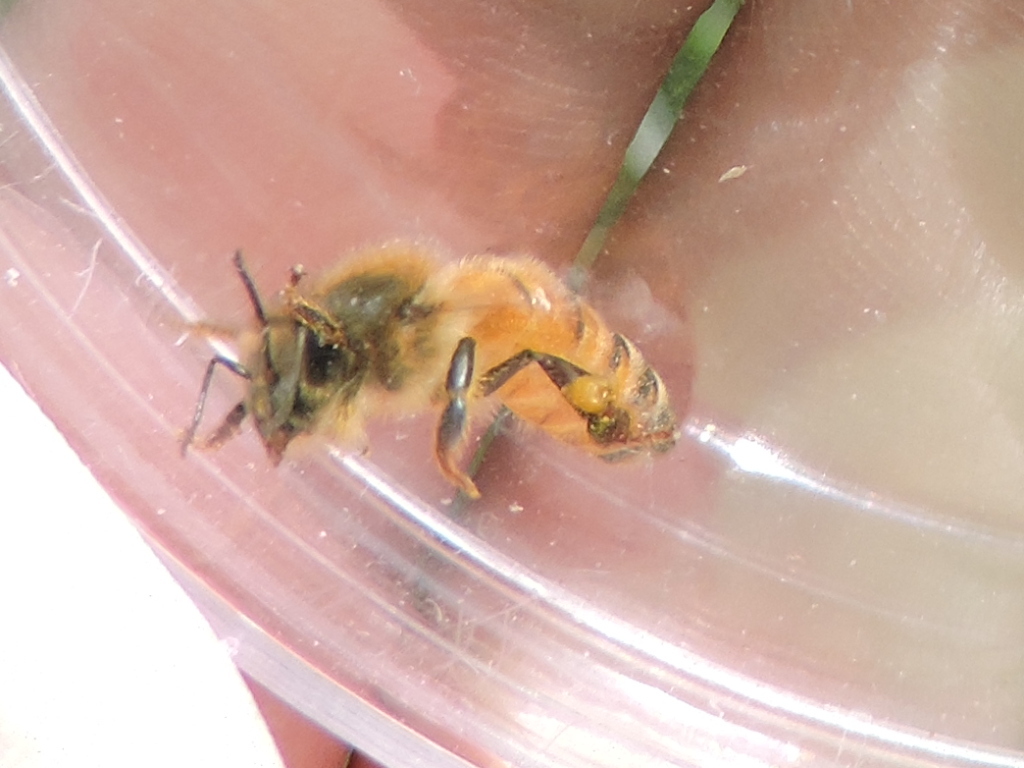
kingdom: Animalia
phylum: Arthropoda
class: Insecta
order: Hymenoptera
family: Apidae
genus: Apis
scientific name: Apis mellifera
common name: Honey bee
